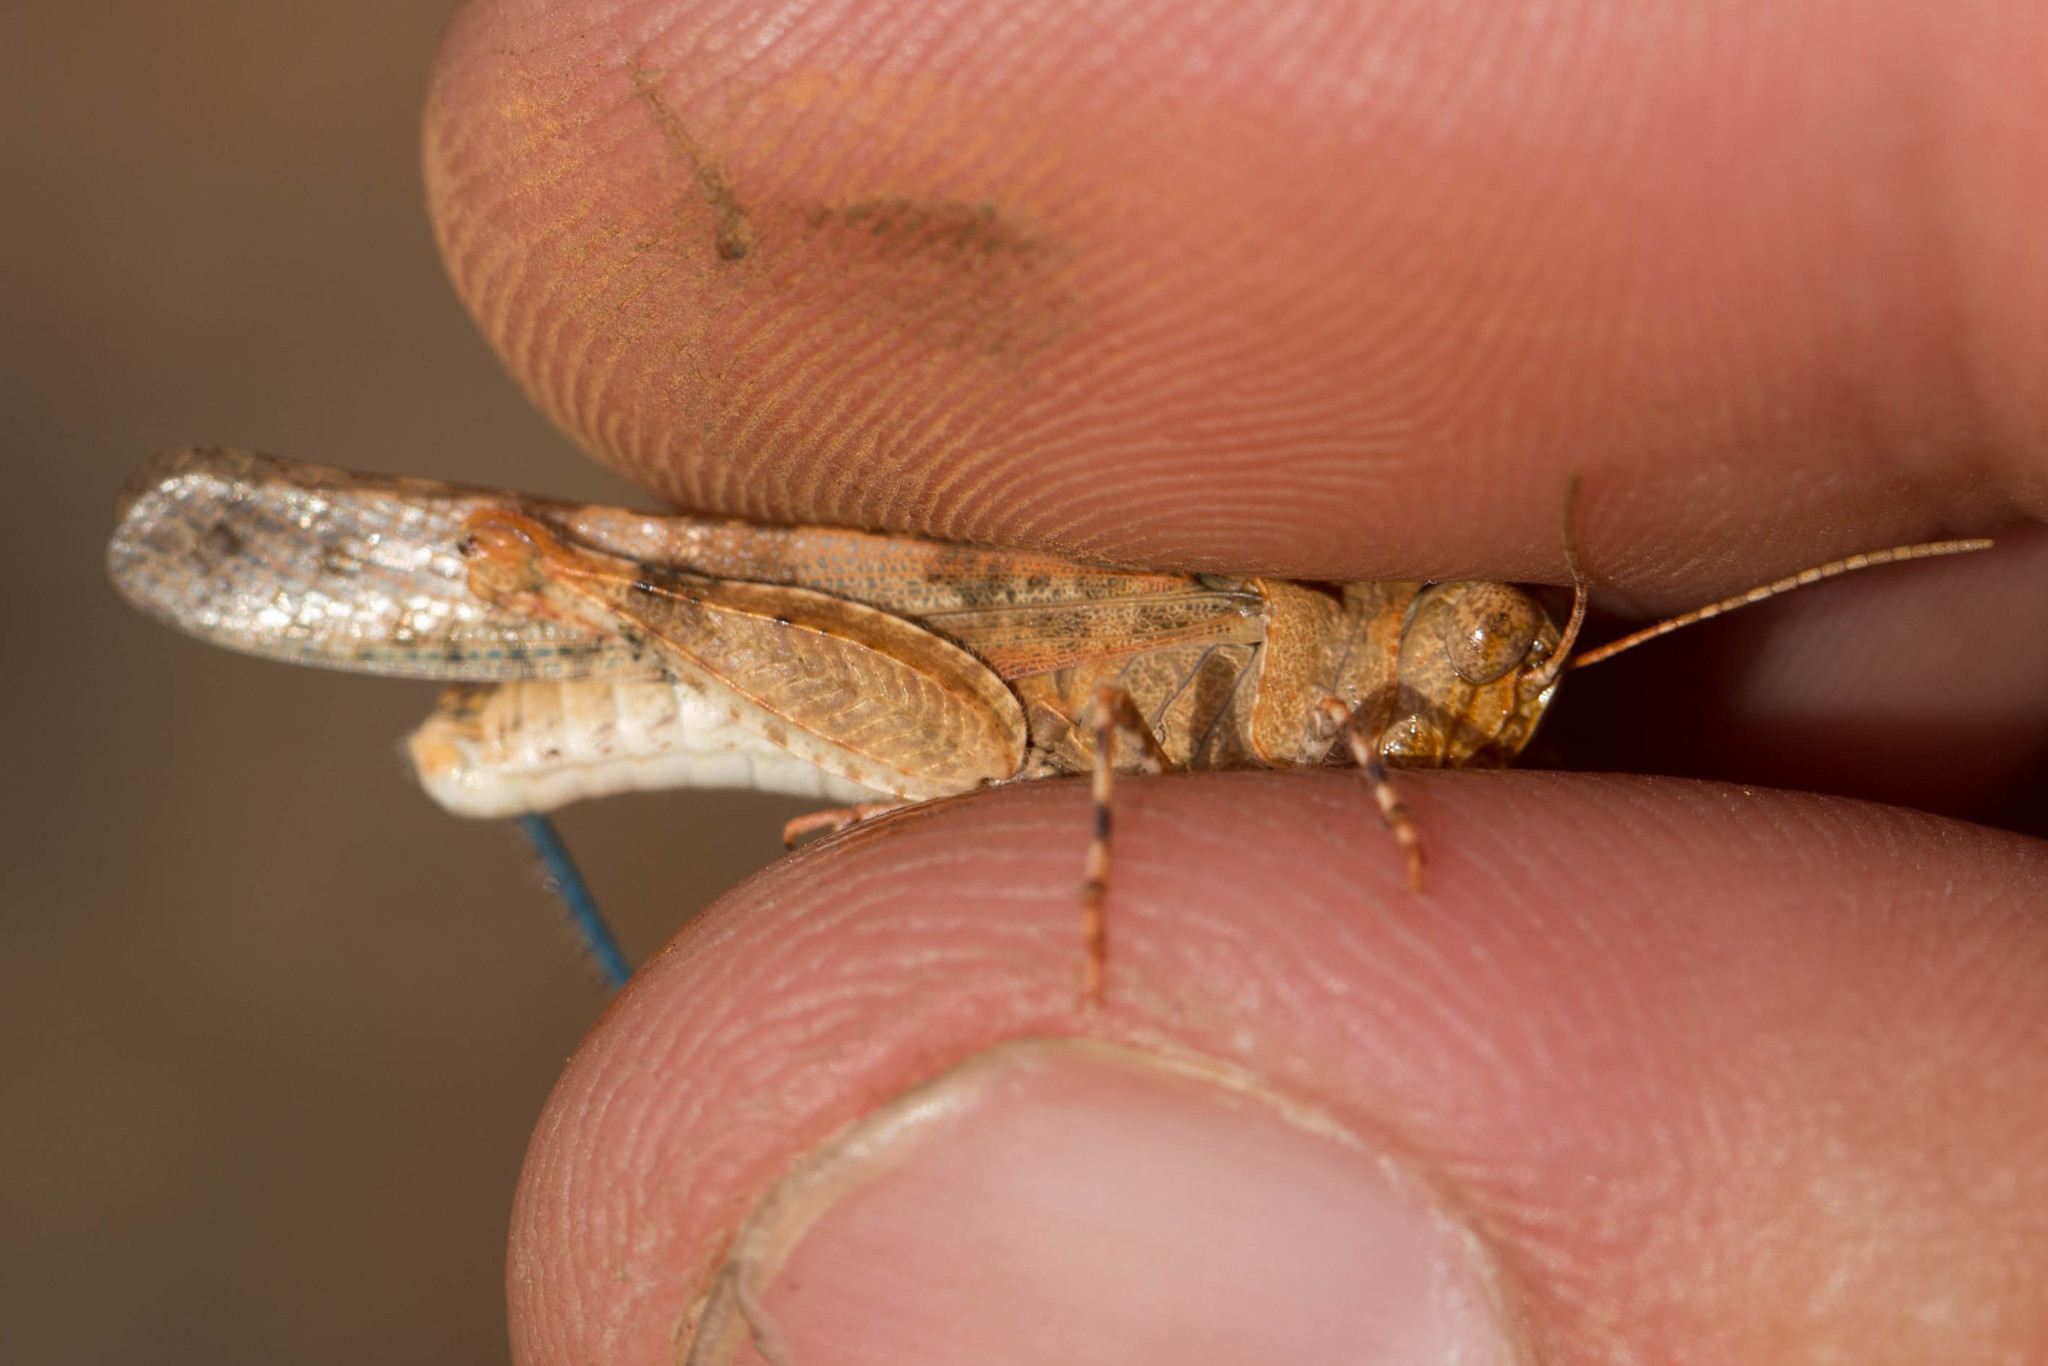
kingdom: Animalia
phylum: Arthropoda
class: Insecta
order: Orthoptera
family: Acrididae
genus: Trimerotropis
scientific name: Trimerotropis pseudofasciata
